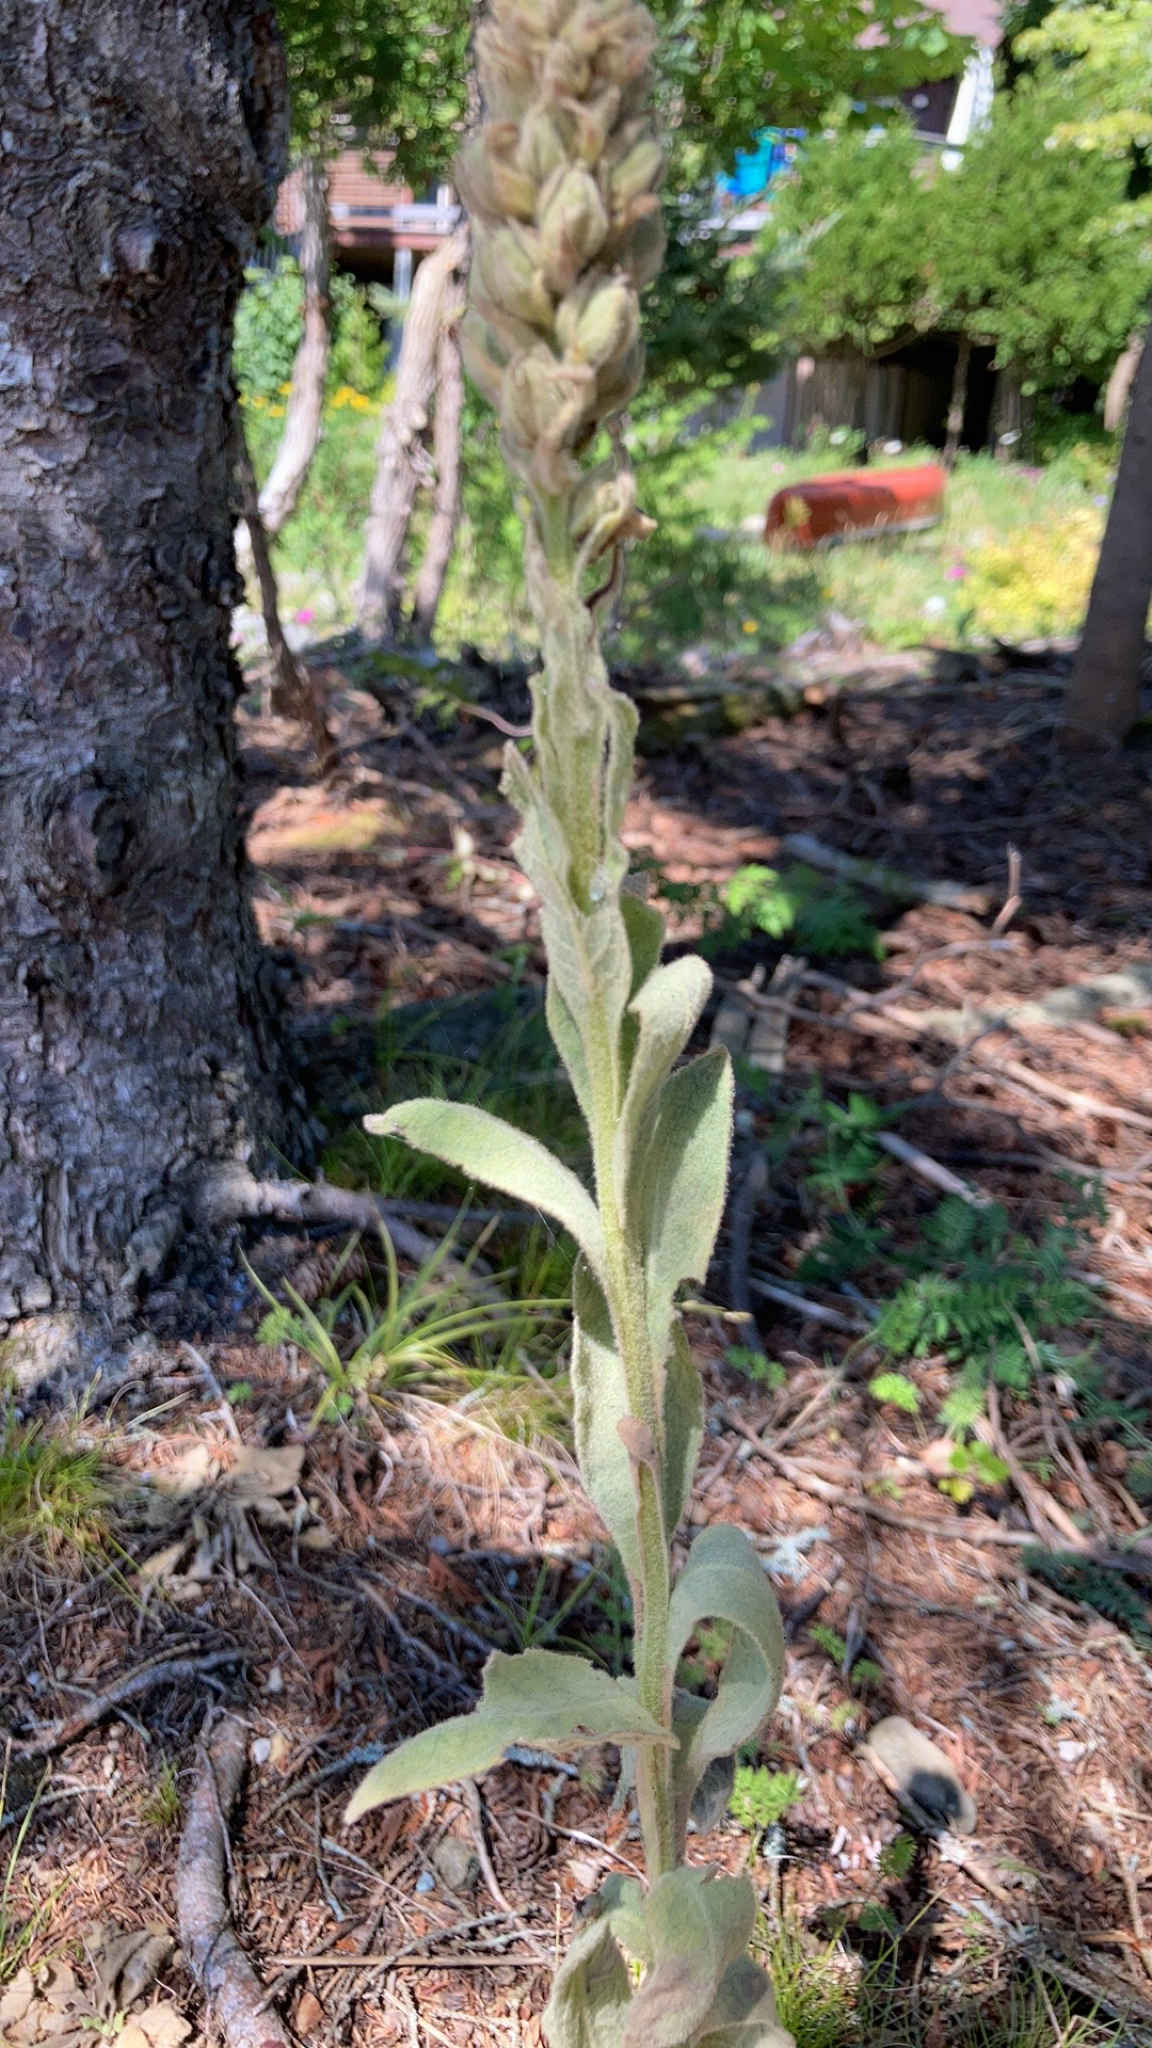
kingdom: Plantae
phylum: Tracheophyta
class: Magnoliopsida
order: Lamiales
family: Scrophulariaceae
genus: Verbascum
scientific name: Verbascum thapsus
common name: Common mullein
